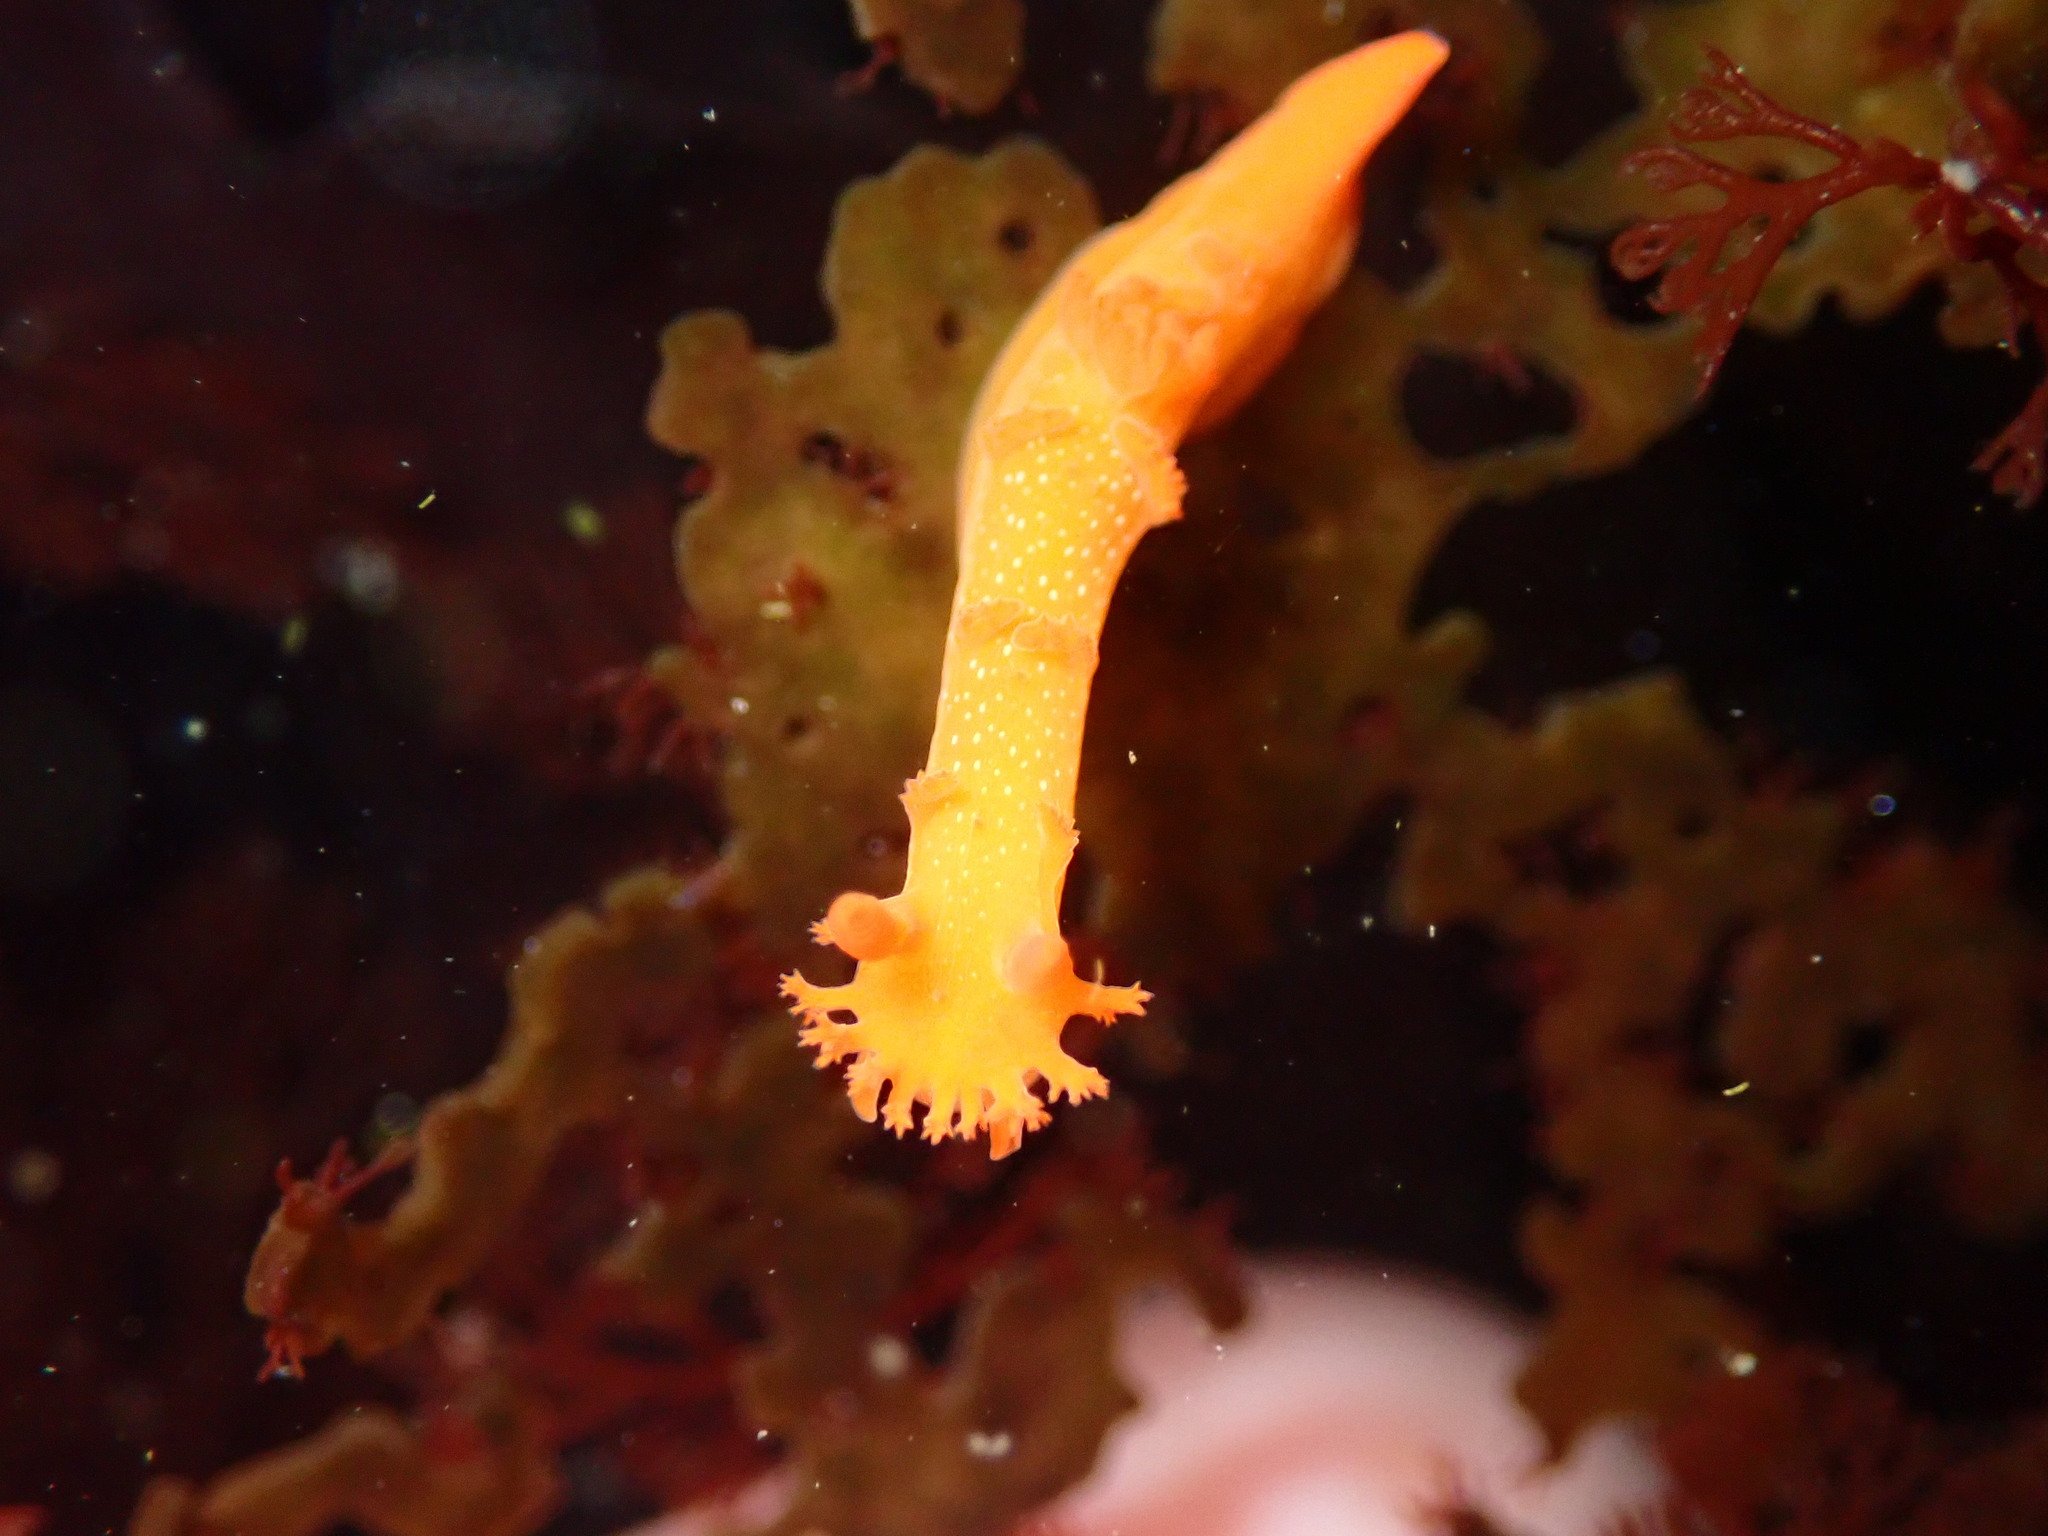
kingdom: Animalia
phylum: Mollusca
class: Gastropoda
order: Nudibranchia
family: Polyceridae
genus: Triopha
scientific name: Triopha maculata
